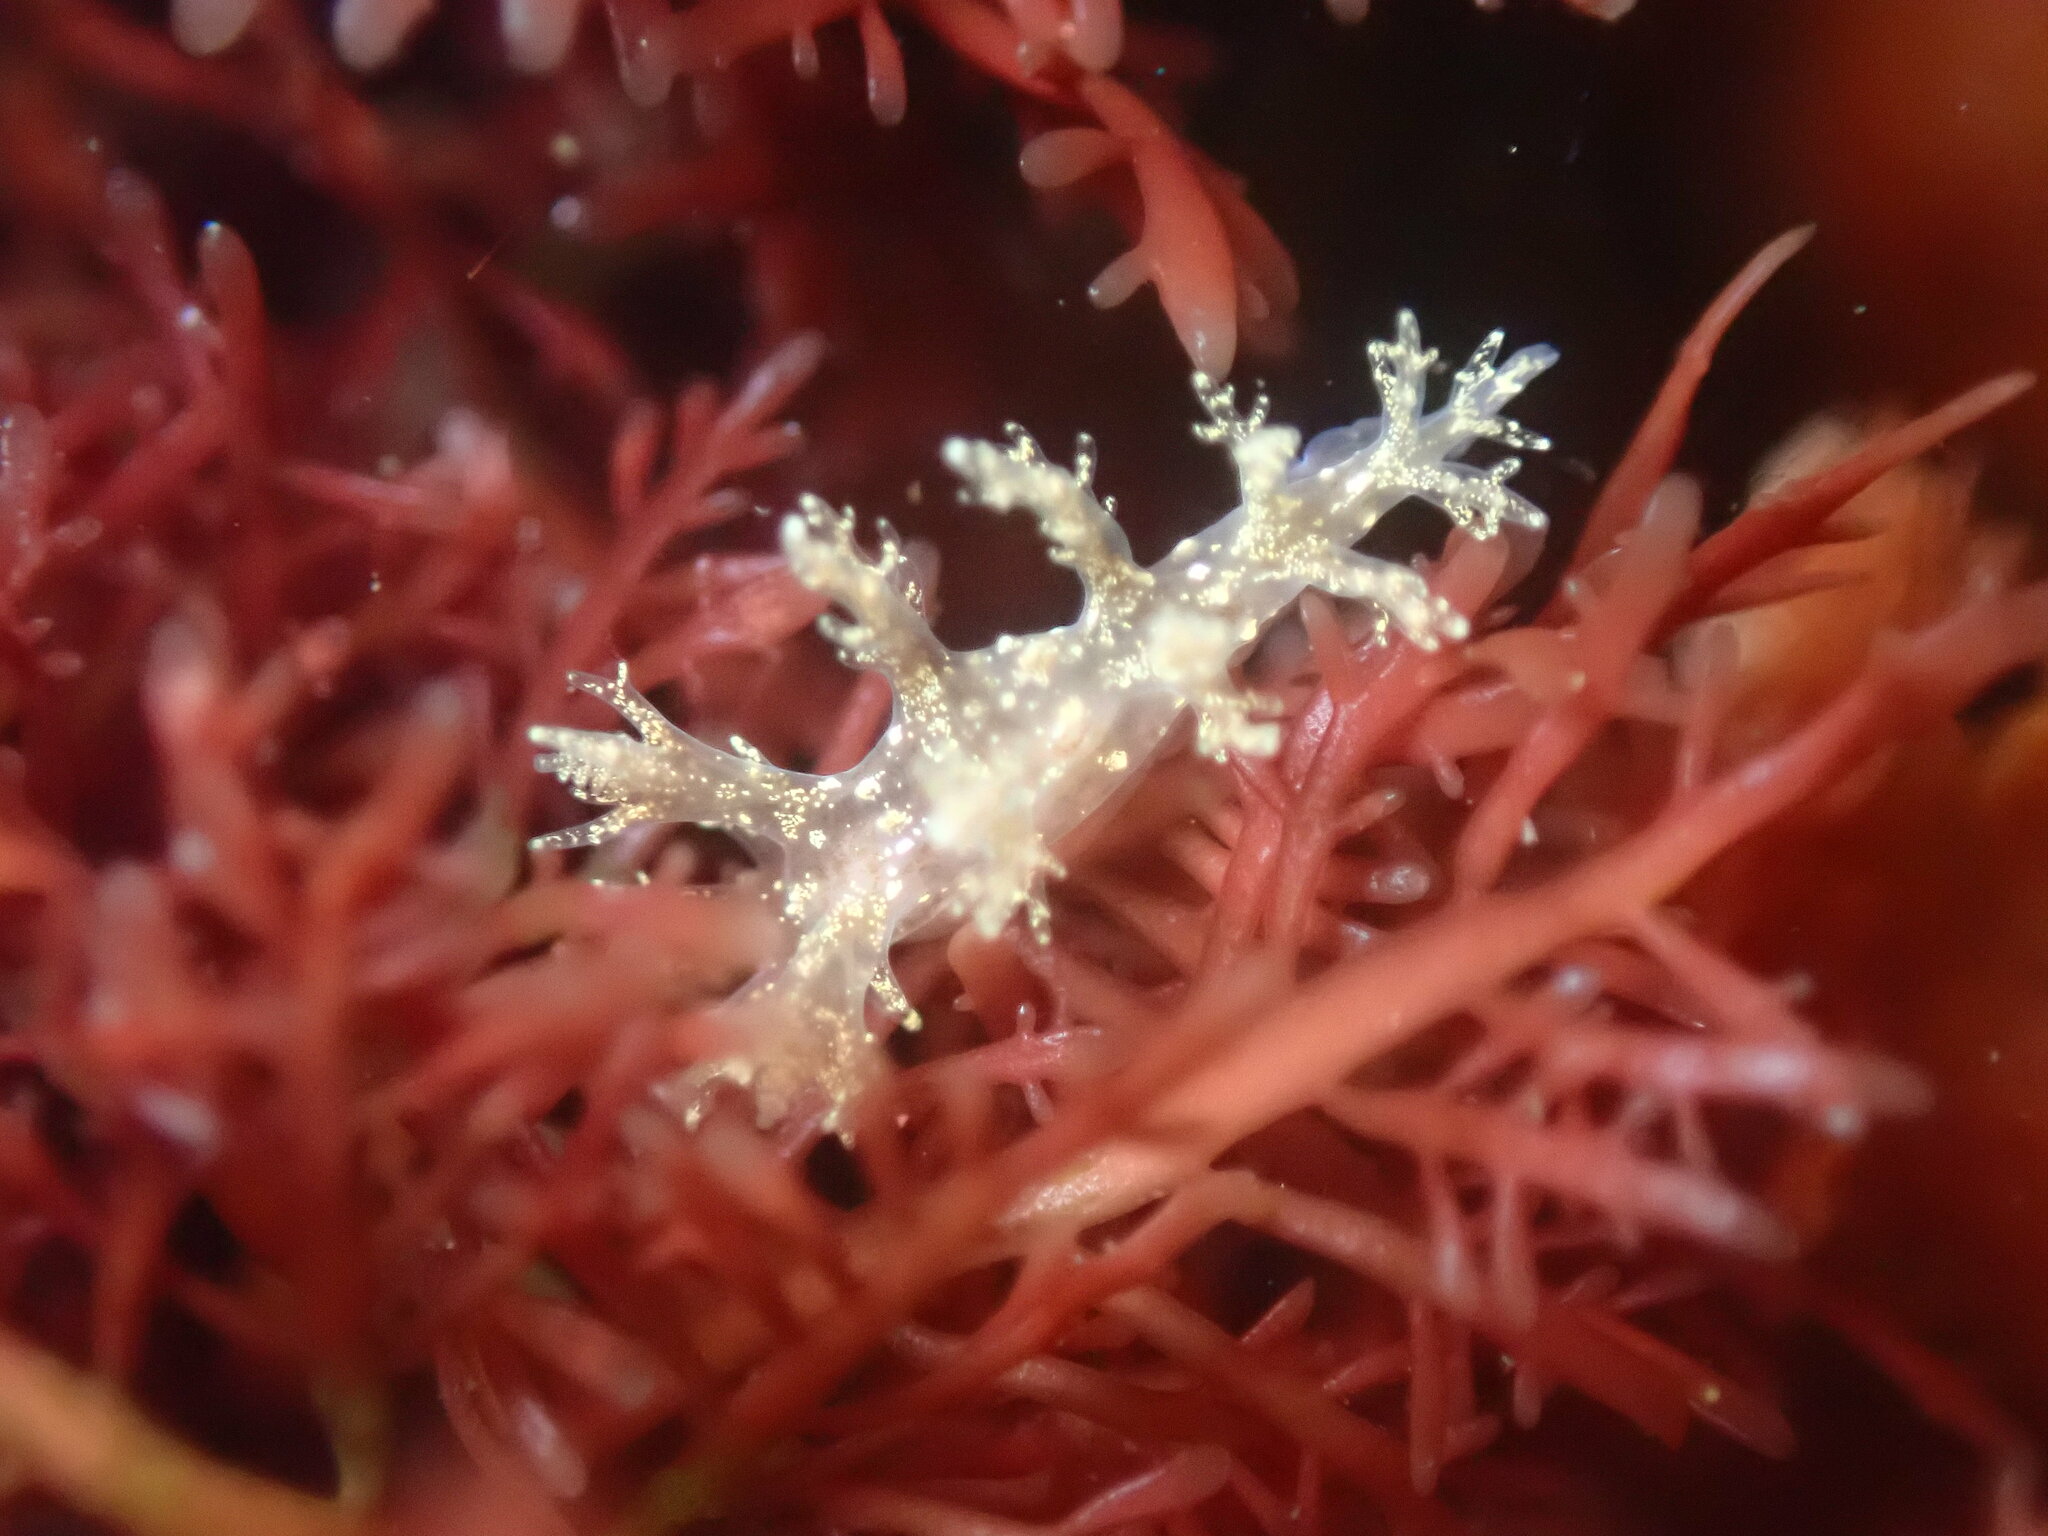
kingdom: Animalia
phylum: Mollusca
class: Gastropoda
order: Nudibranchia
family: Dendronotidae
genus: Dendronotus
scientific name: Dendronotus venustus
